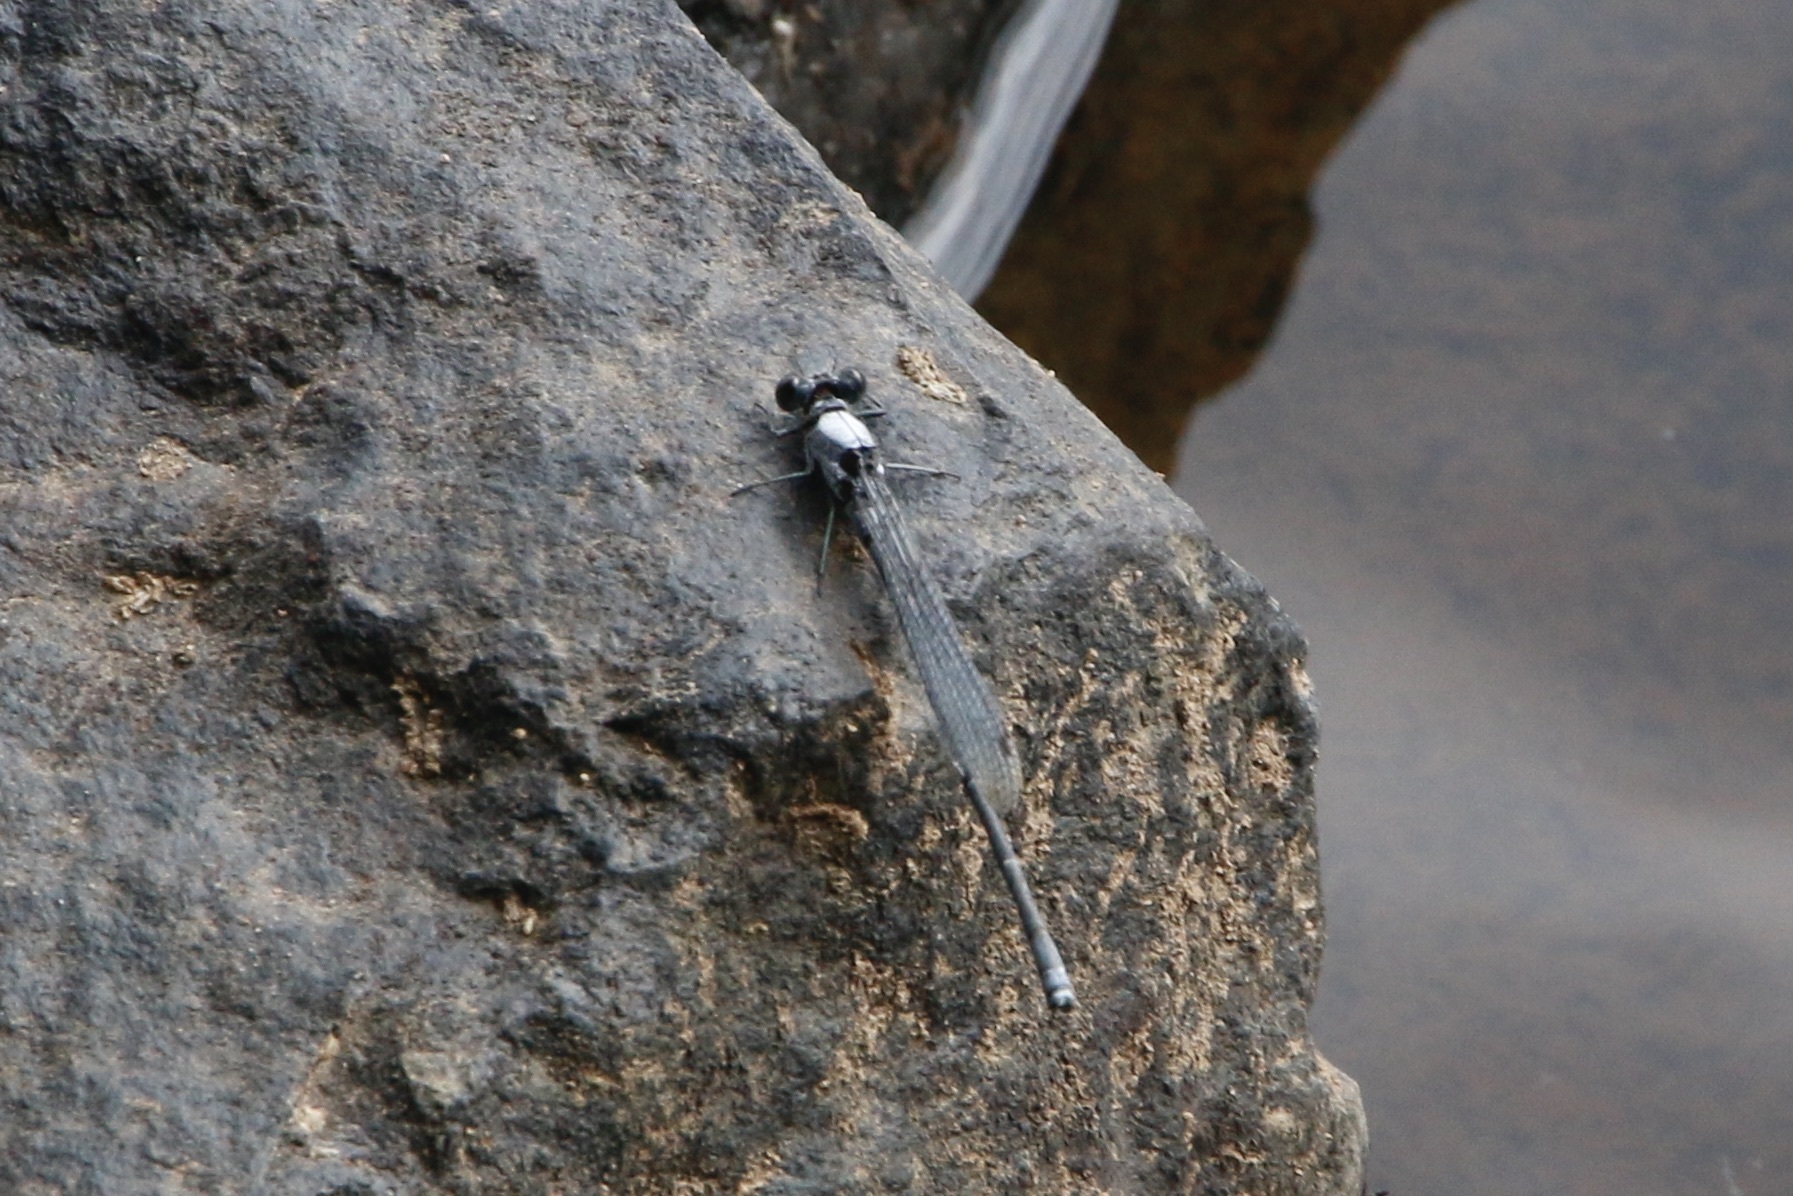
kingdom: Animalia
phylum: Arthropoda
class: Insecta
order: Odonata
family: Coenagrionidae
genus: Argia
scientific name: Argia moesta
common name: Powdered dancer
